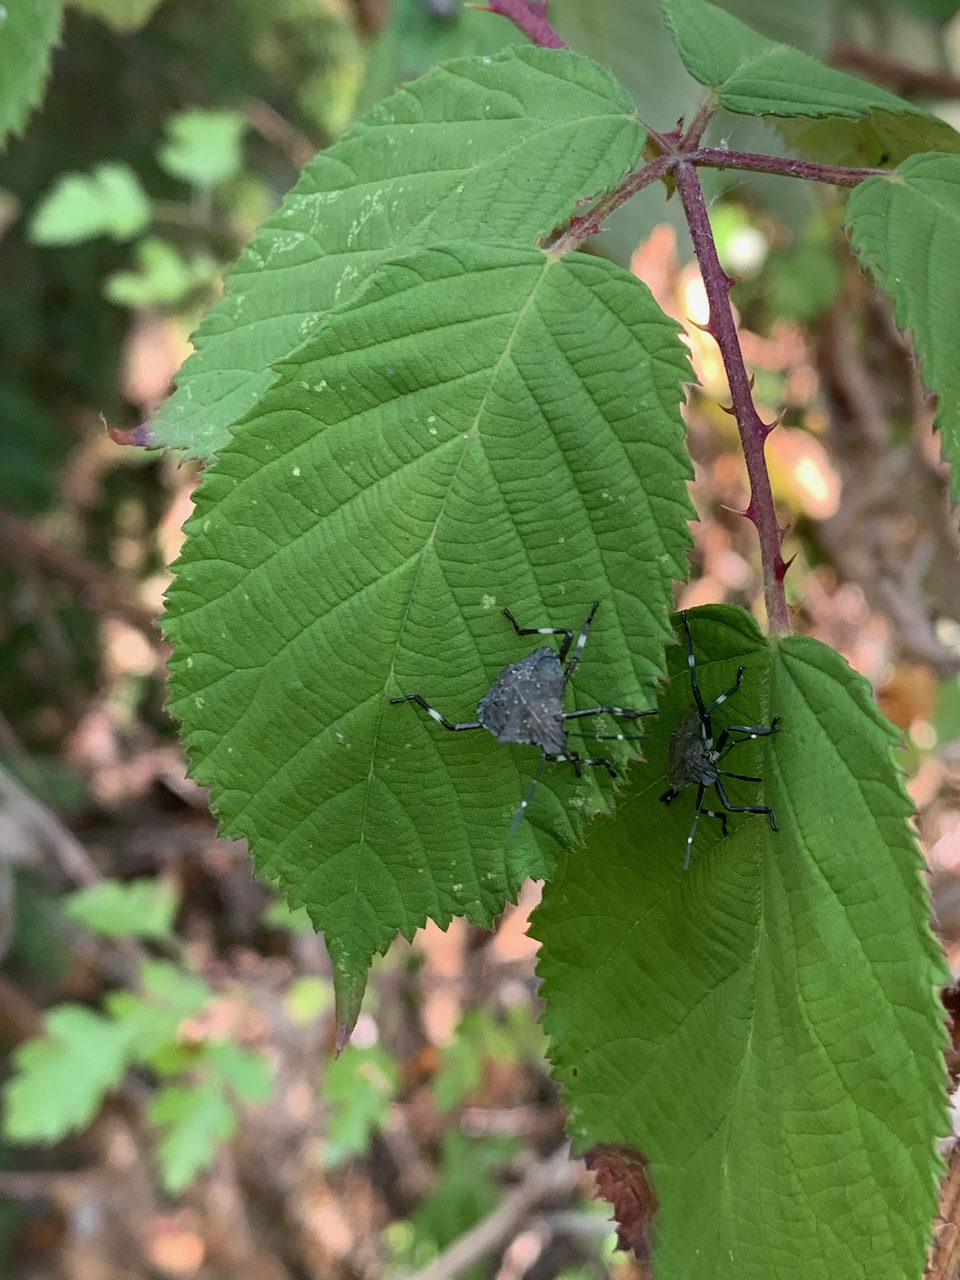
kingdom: Animalia
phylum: Arthropoda
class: Insecta
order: Hemiptera
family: Pentatomidae
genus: Halyomorpha
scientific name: Halyomorpha halys
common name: Brown marmorated stink bug
